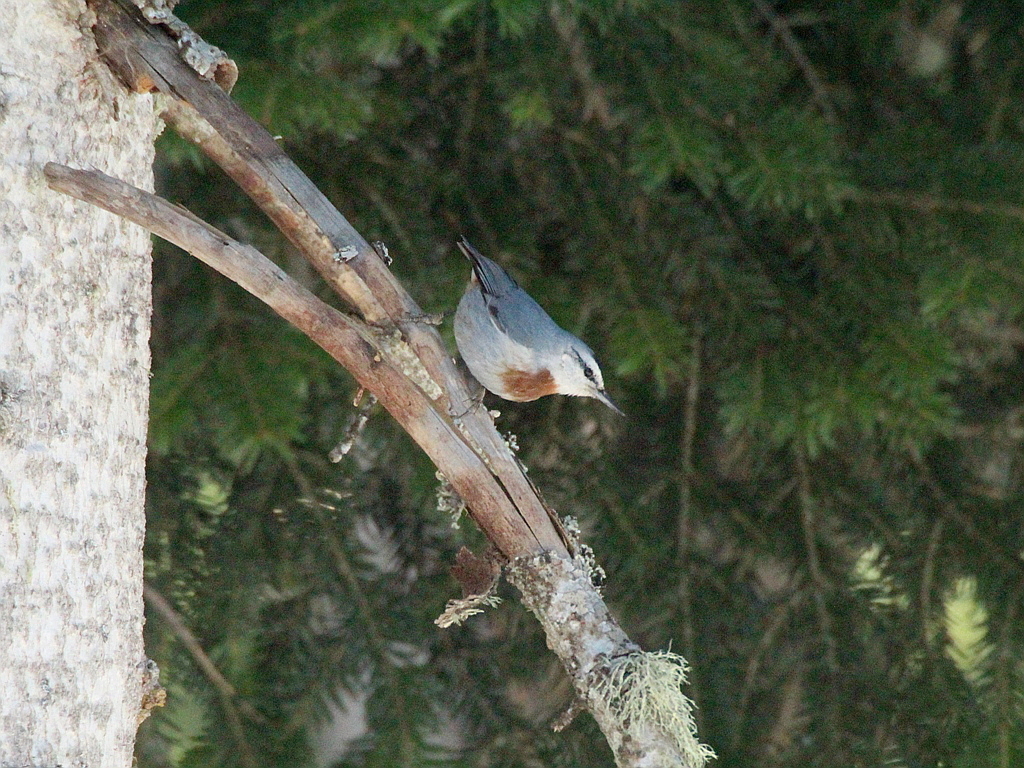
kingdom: Animalia
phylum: Chordata
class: Aves
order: Passeriformes
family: Sittidae
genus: Sitta
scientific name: Sitta krueperi
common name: Krüper's nuthatch
